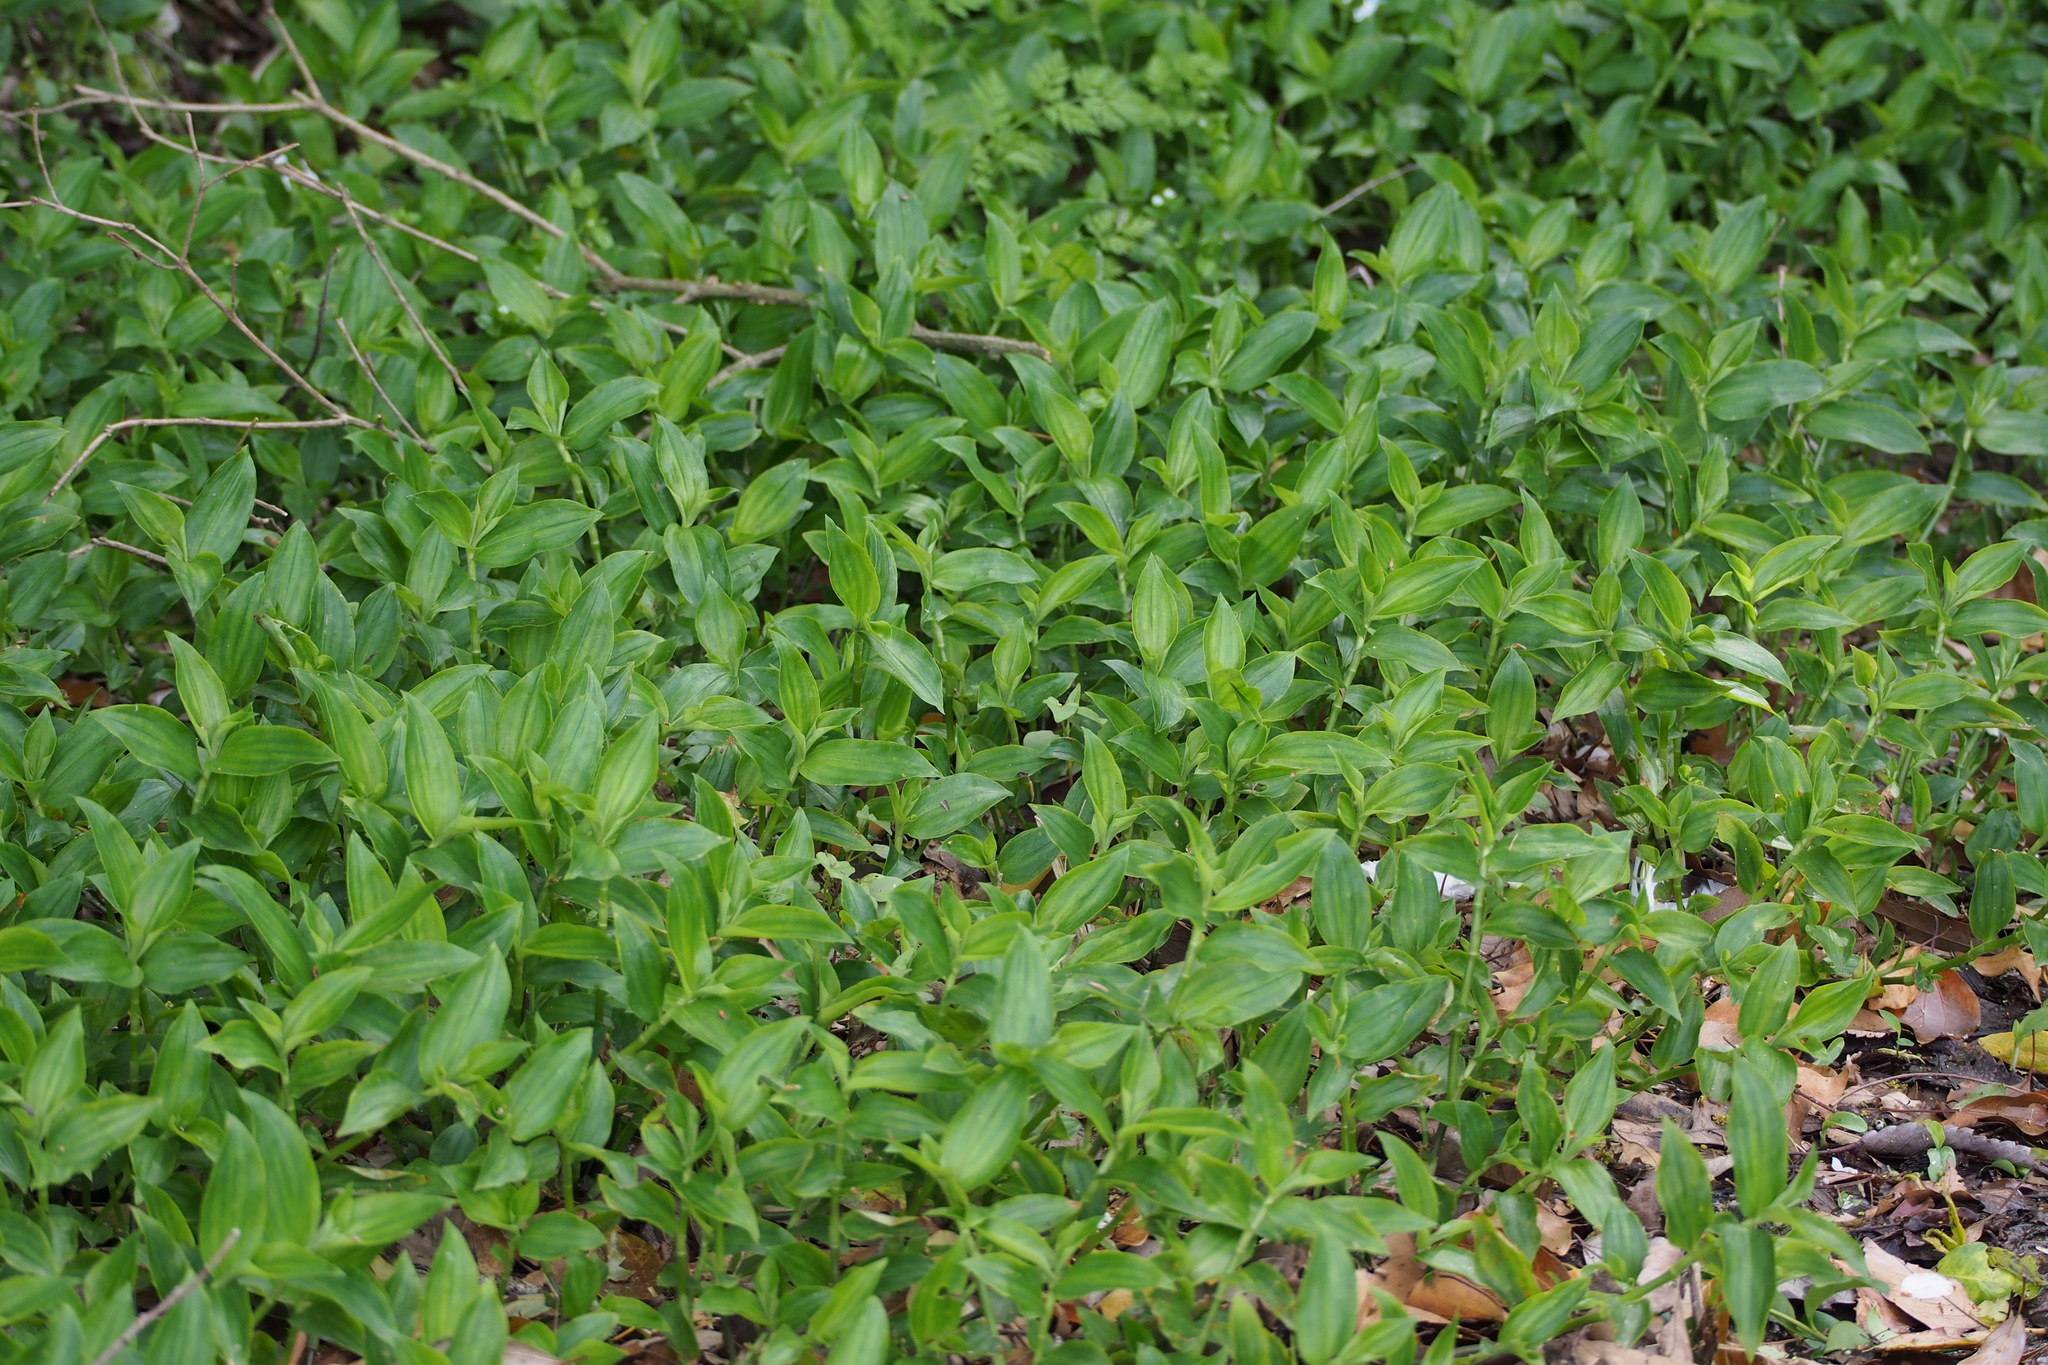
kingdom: Plantae
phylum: Tracheophyta
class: Liliopsida
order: Commelinales
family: Commelinaceae
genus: Tradescantia
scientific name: Tradescantia fluminensis
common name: Wandering-jew
